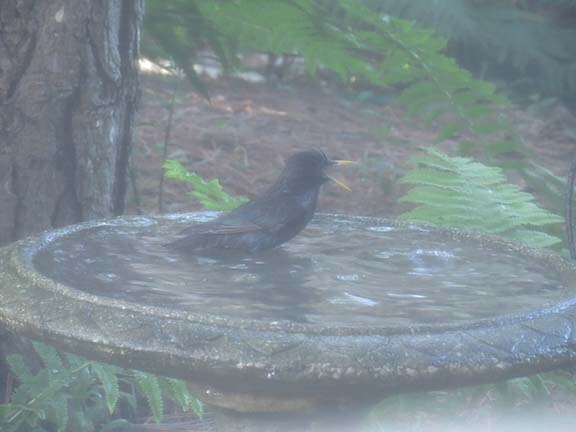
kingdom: Animalia
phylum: Chordata
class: Aves
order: Passeriformes
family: Sturnidae
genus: Sturnus
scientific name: Sturnus vulgaris
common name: Common starling
